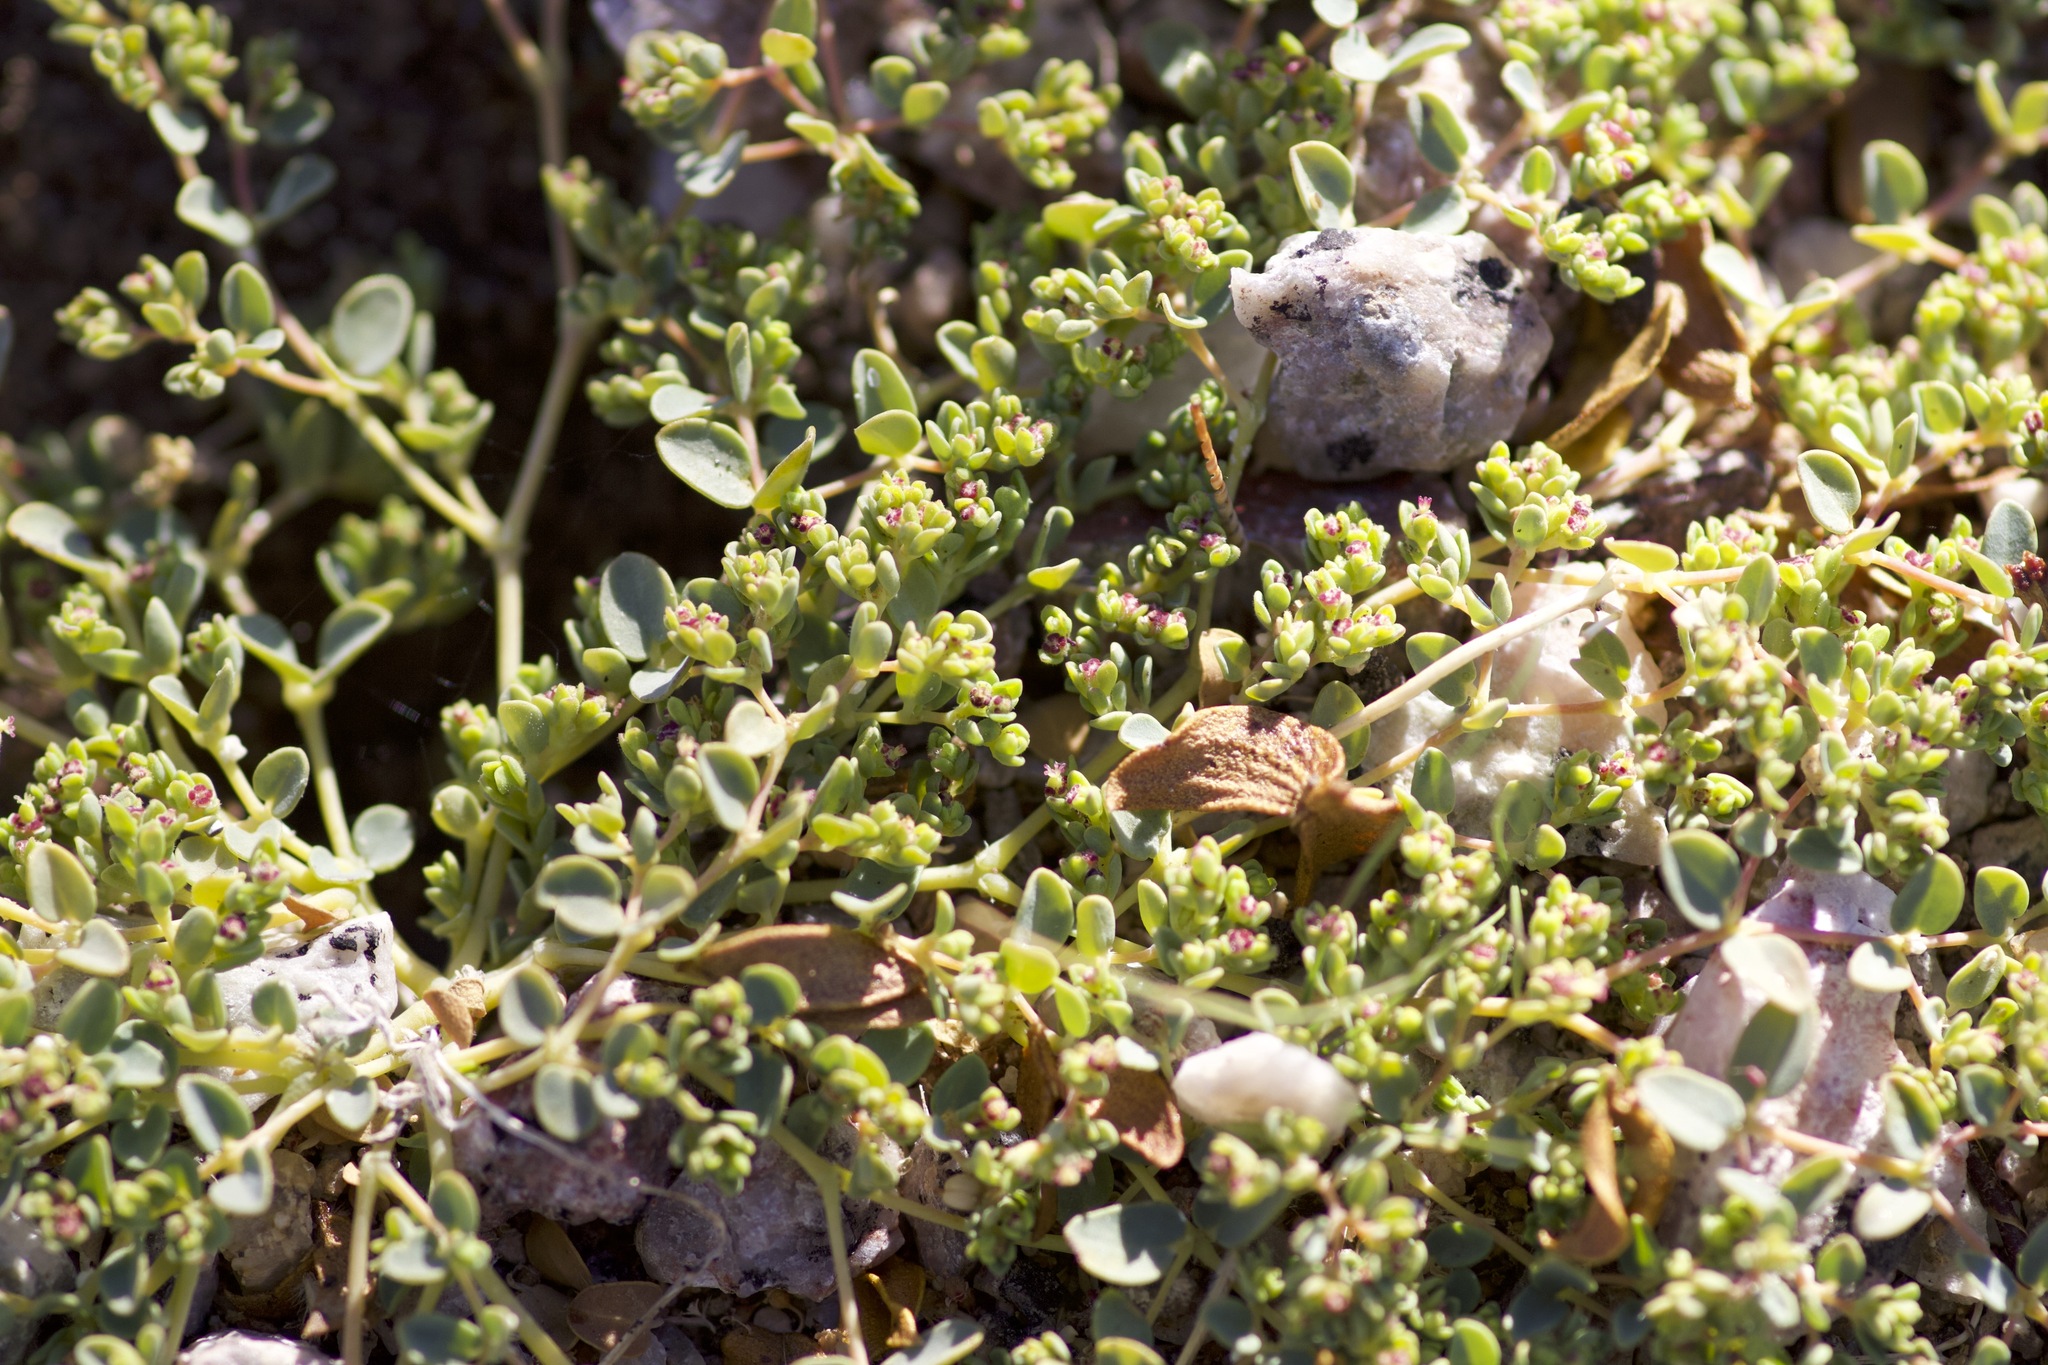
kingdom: Plantae
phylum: Tracheophyta
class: Magnoliopsida
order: Malpighiales
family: Euphorbiaceae
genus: Euphorbia
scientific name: Euphorbia polycarpa
